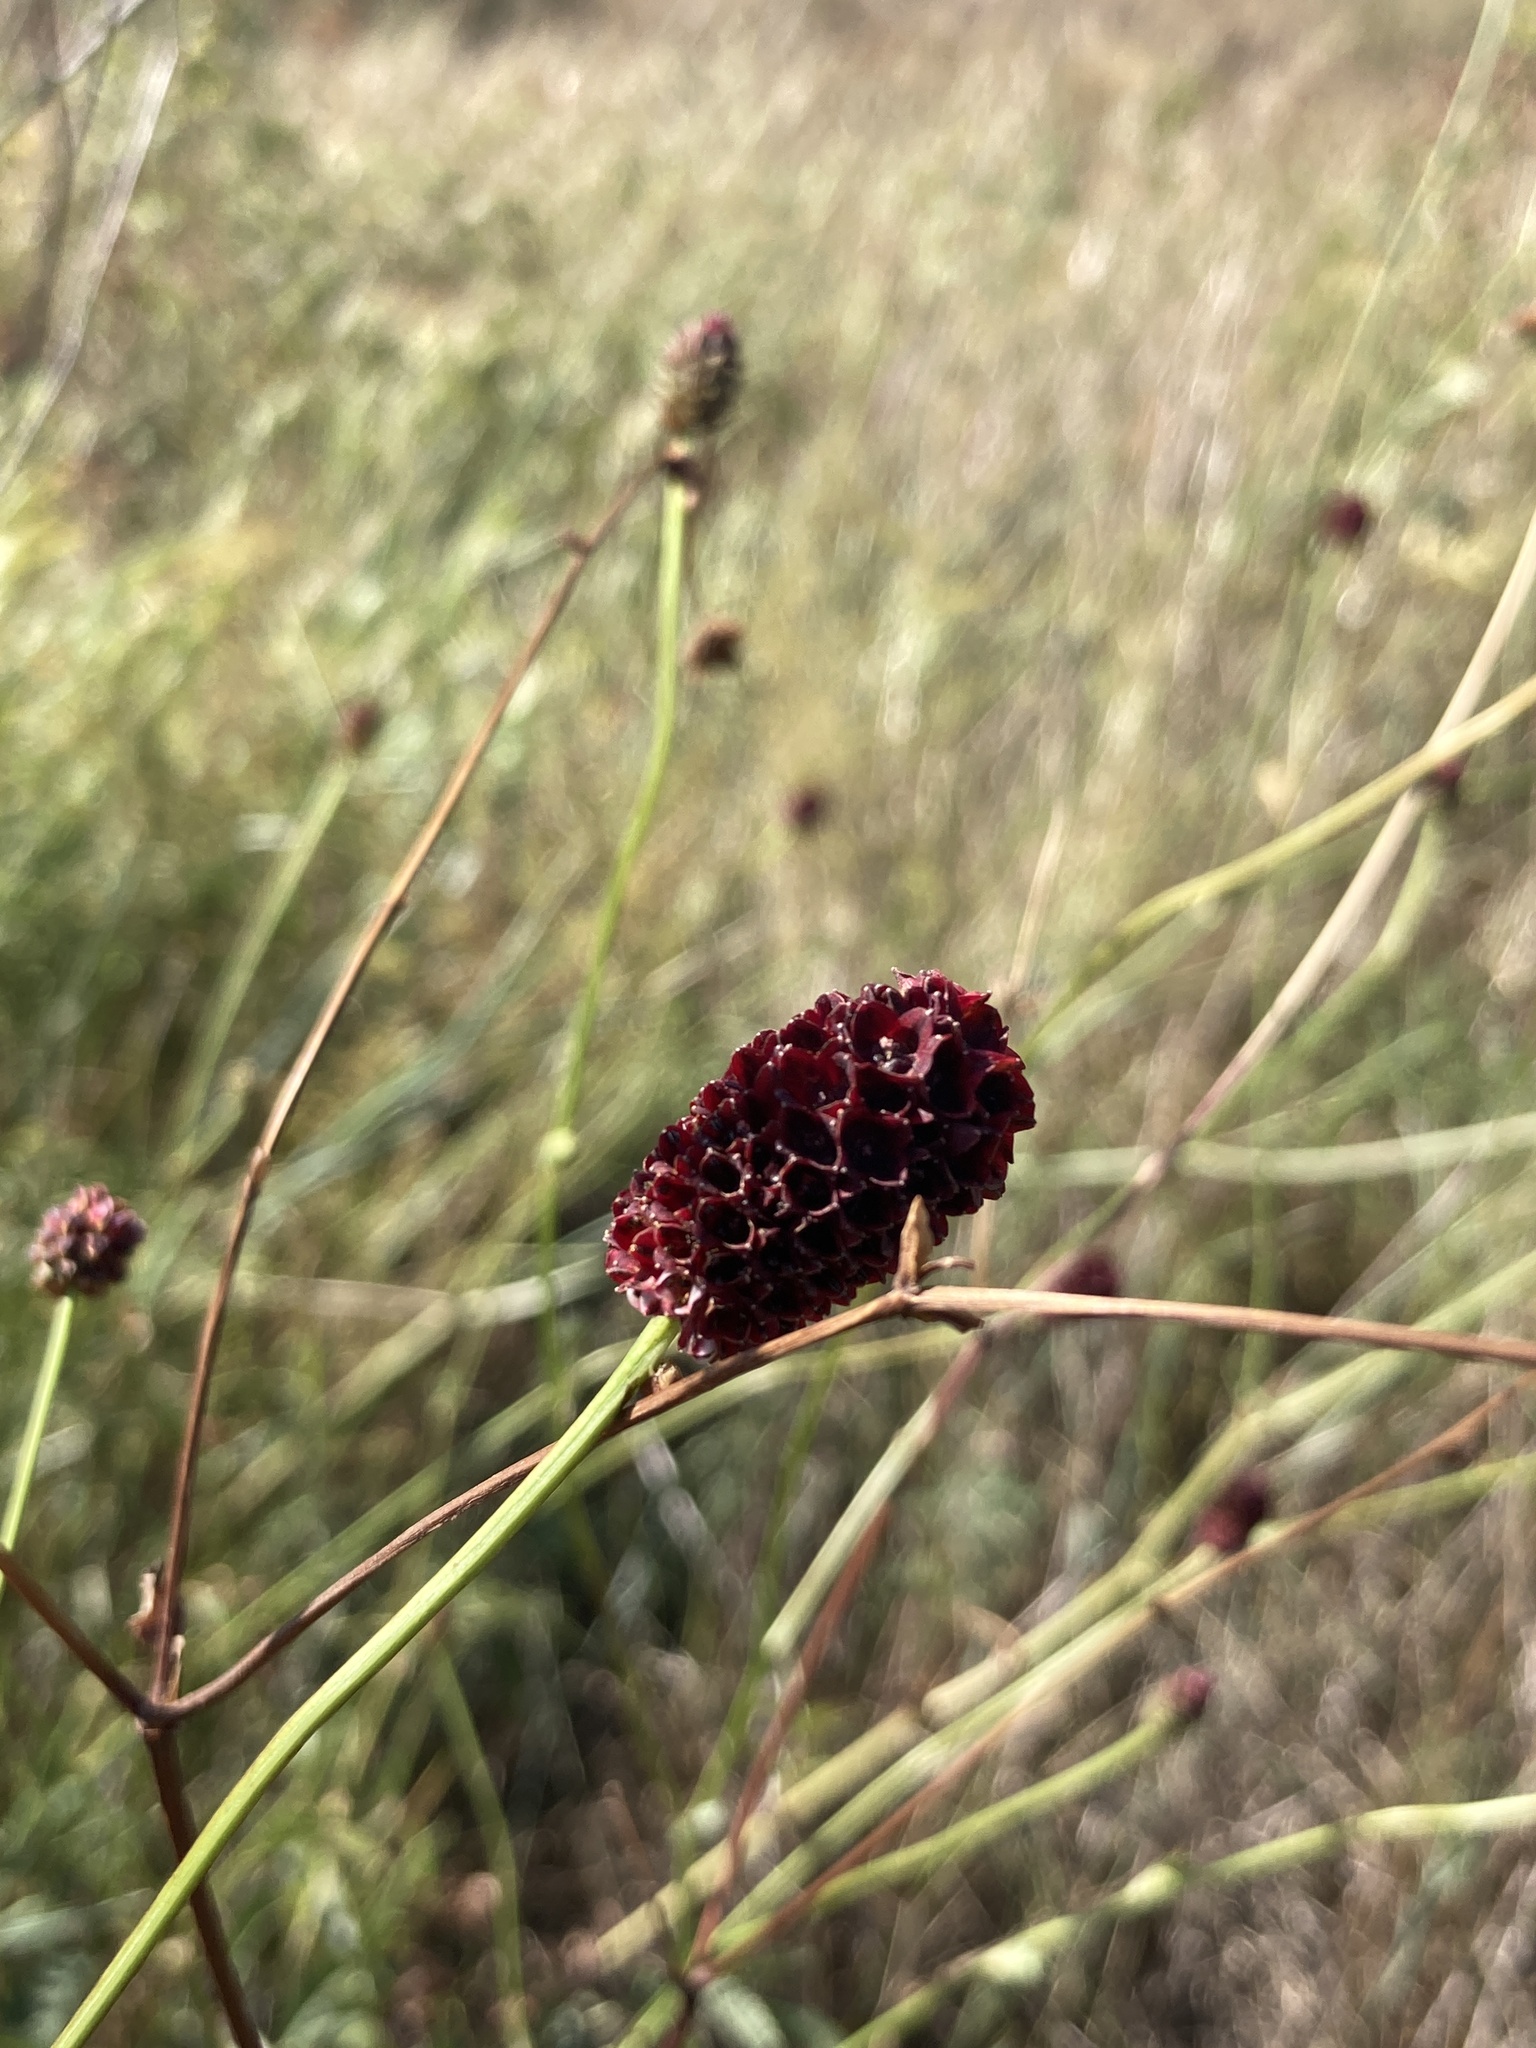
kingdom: Plantae
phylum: Tracheophyta
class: Magnoliopsida
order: Rosales
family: Rosaceae
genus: Sanguisorba
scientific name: Sanguisorba officinalis
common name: Great burnet
